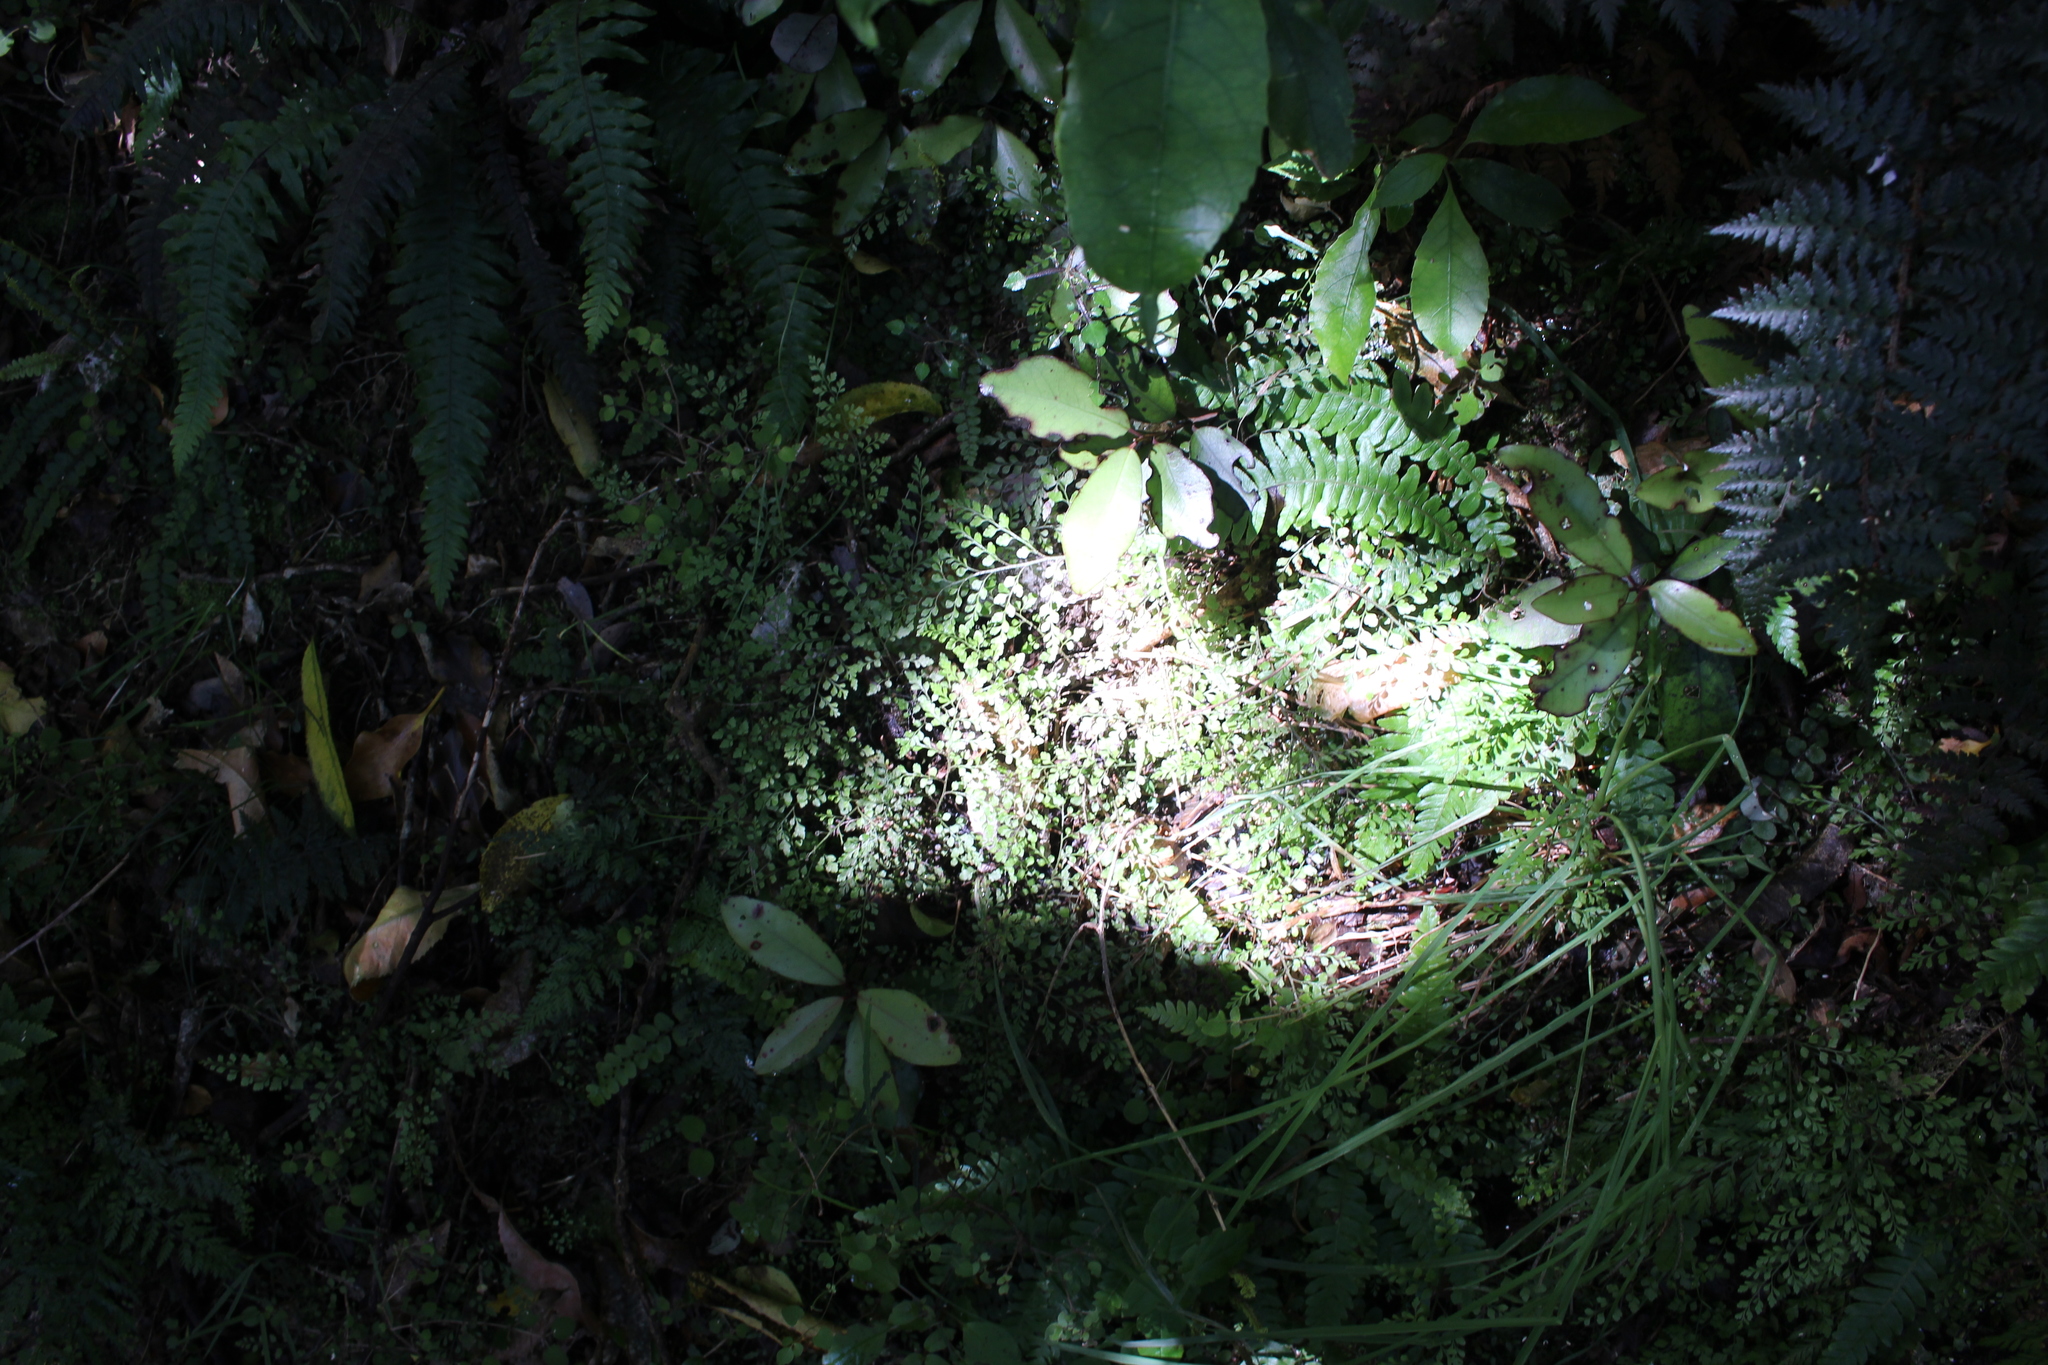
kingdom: Plantae
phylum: Tracheophyta
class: Polypodiopsida
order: Polypodiales
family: Aspleniaceae
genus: Asplenium
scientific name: Asplenium hookerianum
